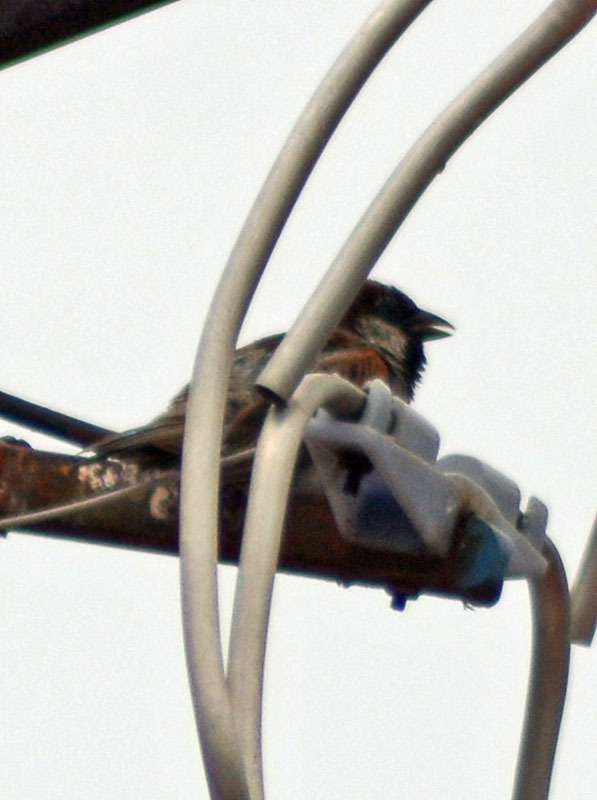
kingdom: Animalia
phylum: Chordata
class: Aves
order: Passeriformes
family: Passeridae
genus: Passer
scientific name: Passer domesticus
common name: House sparrow
